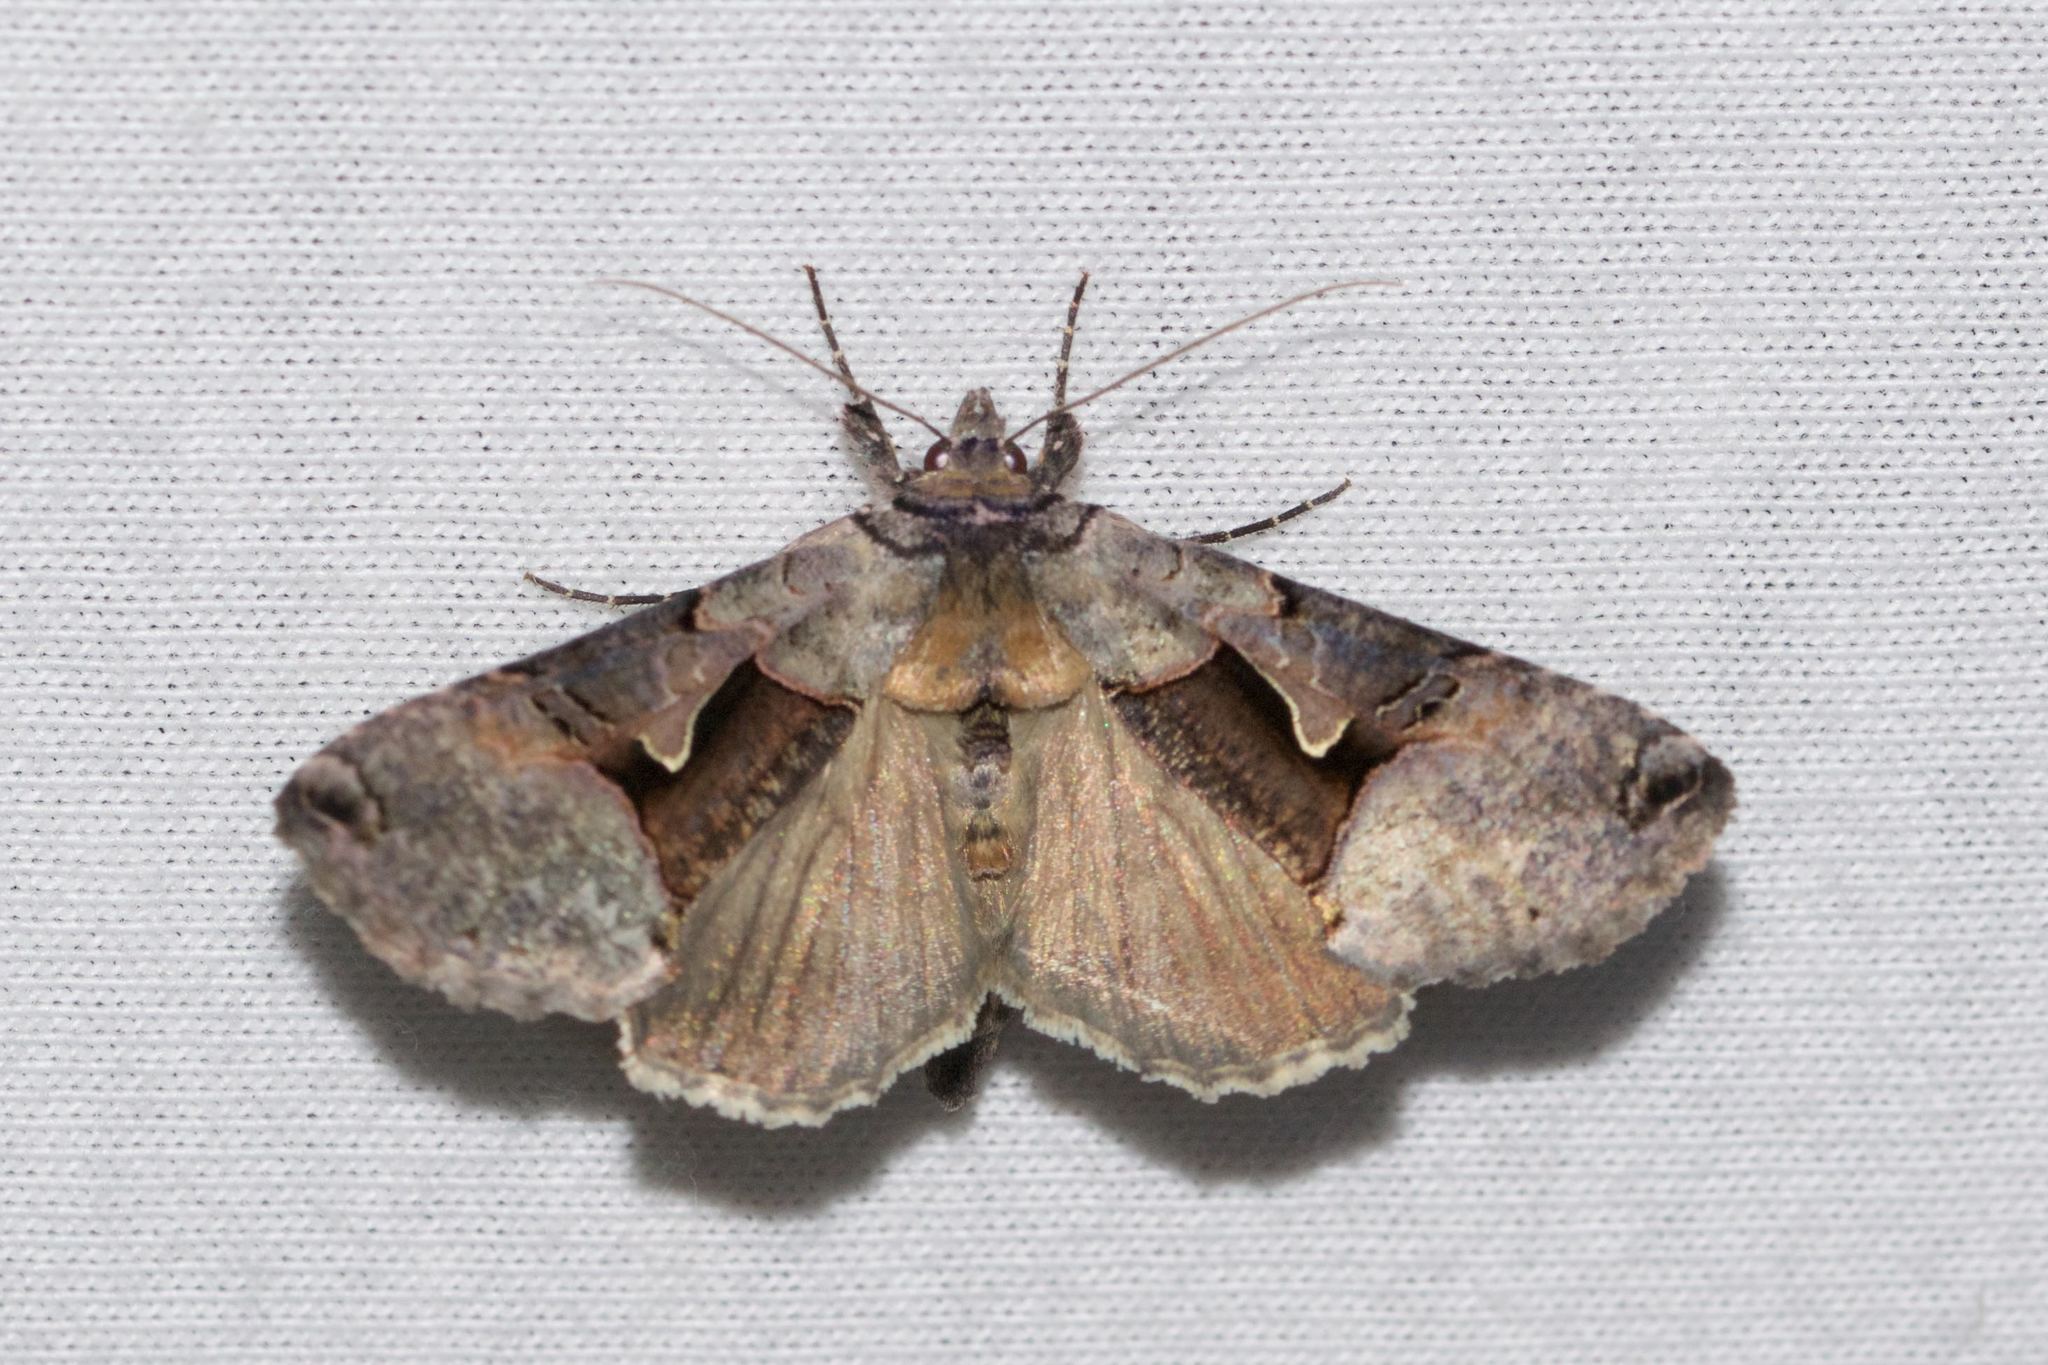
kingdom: Animalia
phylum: Arthropoda
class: Insecta
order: Lepidoptera
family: Noctuidae
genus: Autographa
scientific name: Autographa ampla
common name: Large looper moth
